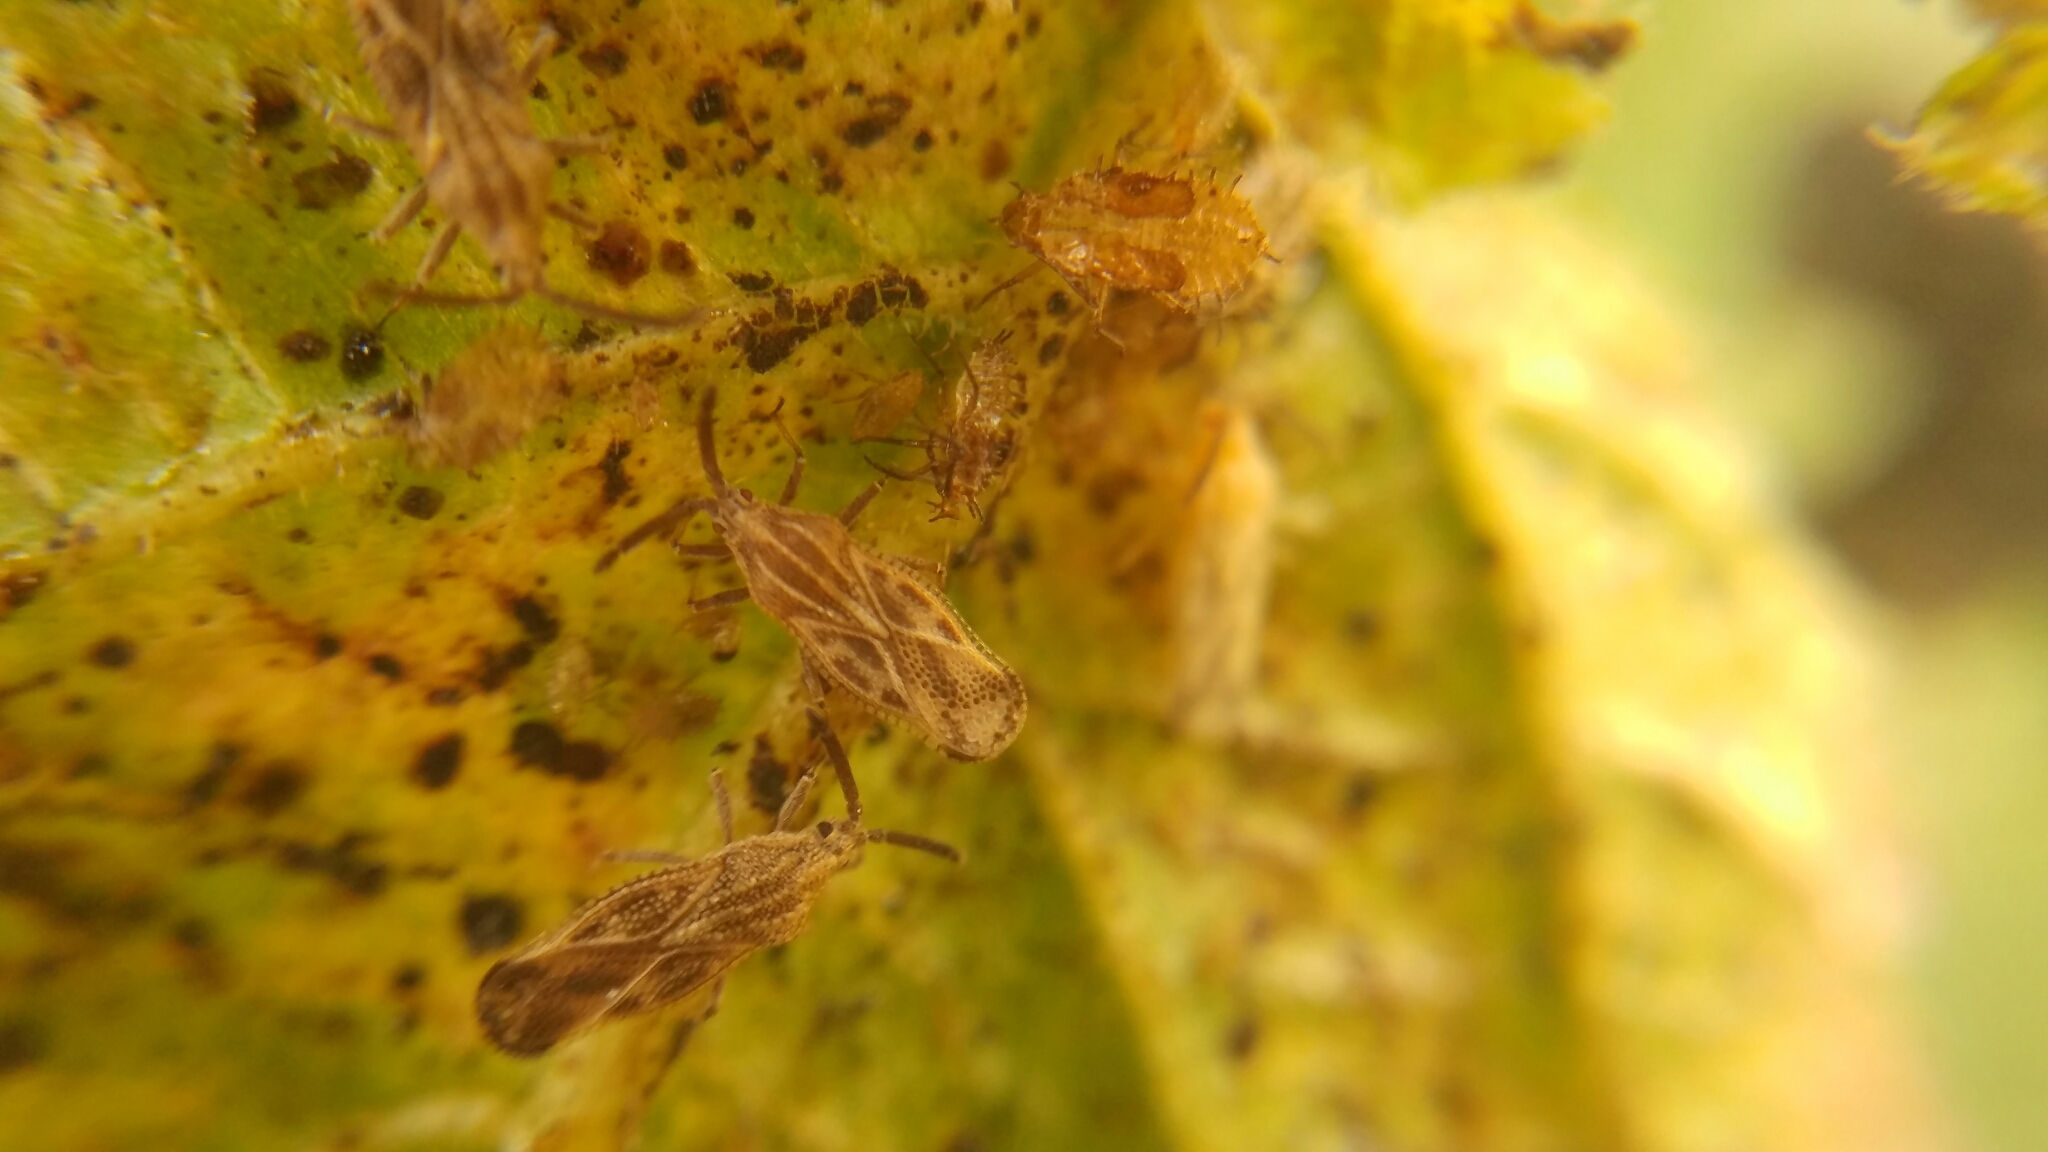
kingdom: Animalia
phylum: Arthropoda
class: Insecta
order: Hemiptera
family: Tingidae
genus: Teleonemia
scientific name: Teleonemia scrupulosa
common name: Lantana lace bug
